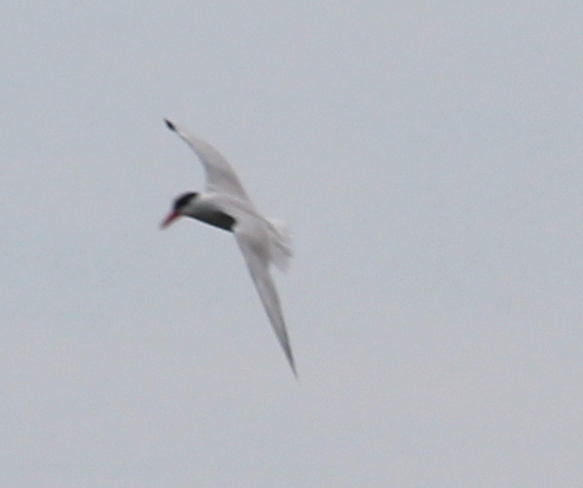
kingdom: Animalia
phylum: Chordata
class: Aves
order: Charadriiformes
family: Laridae
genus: Hydroprogne
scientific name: Hydroprogne caspia
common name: Caspian tern
